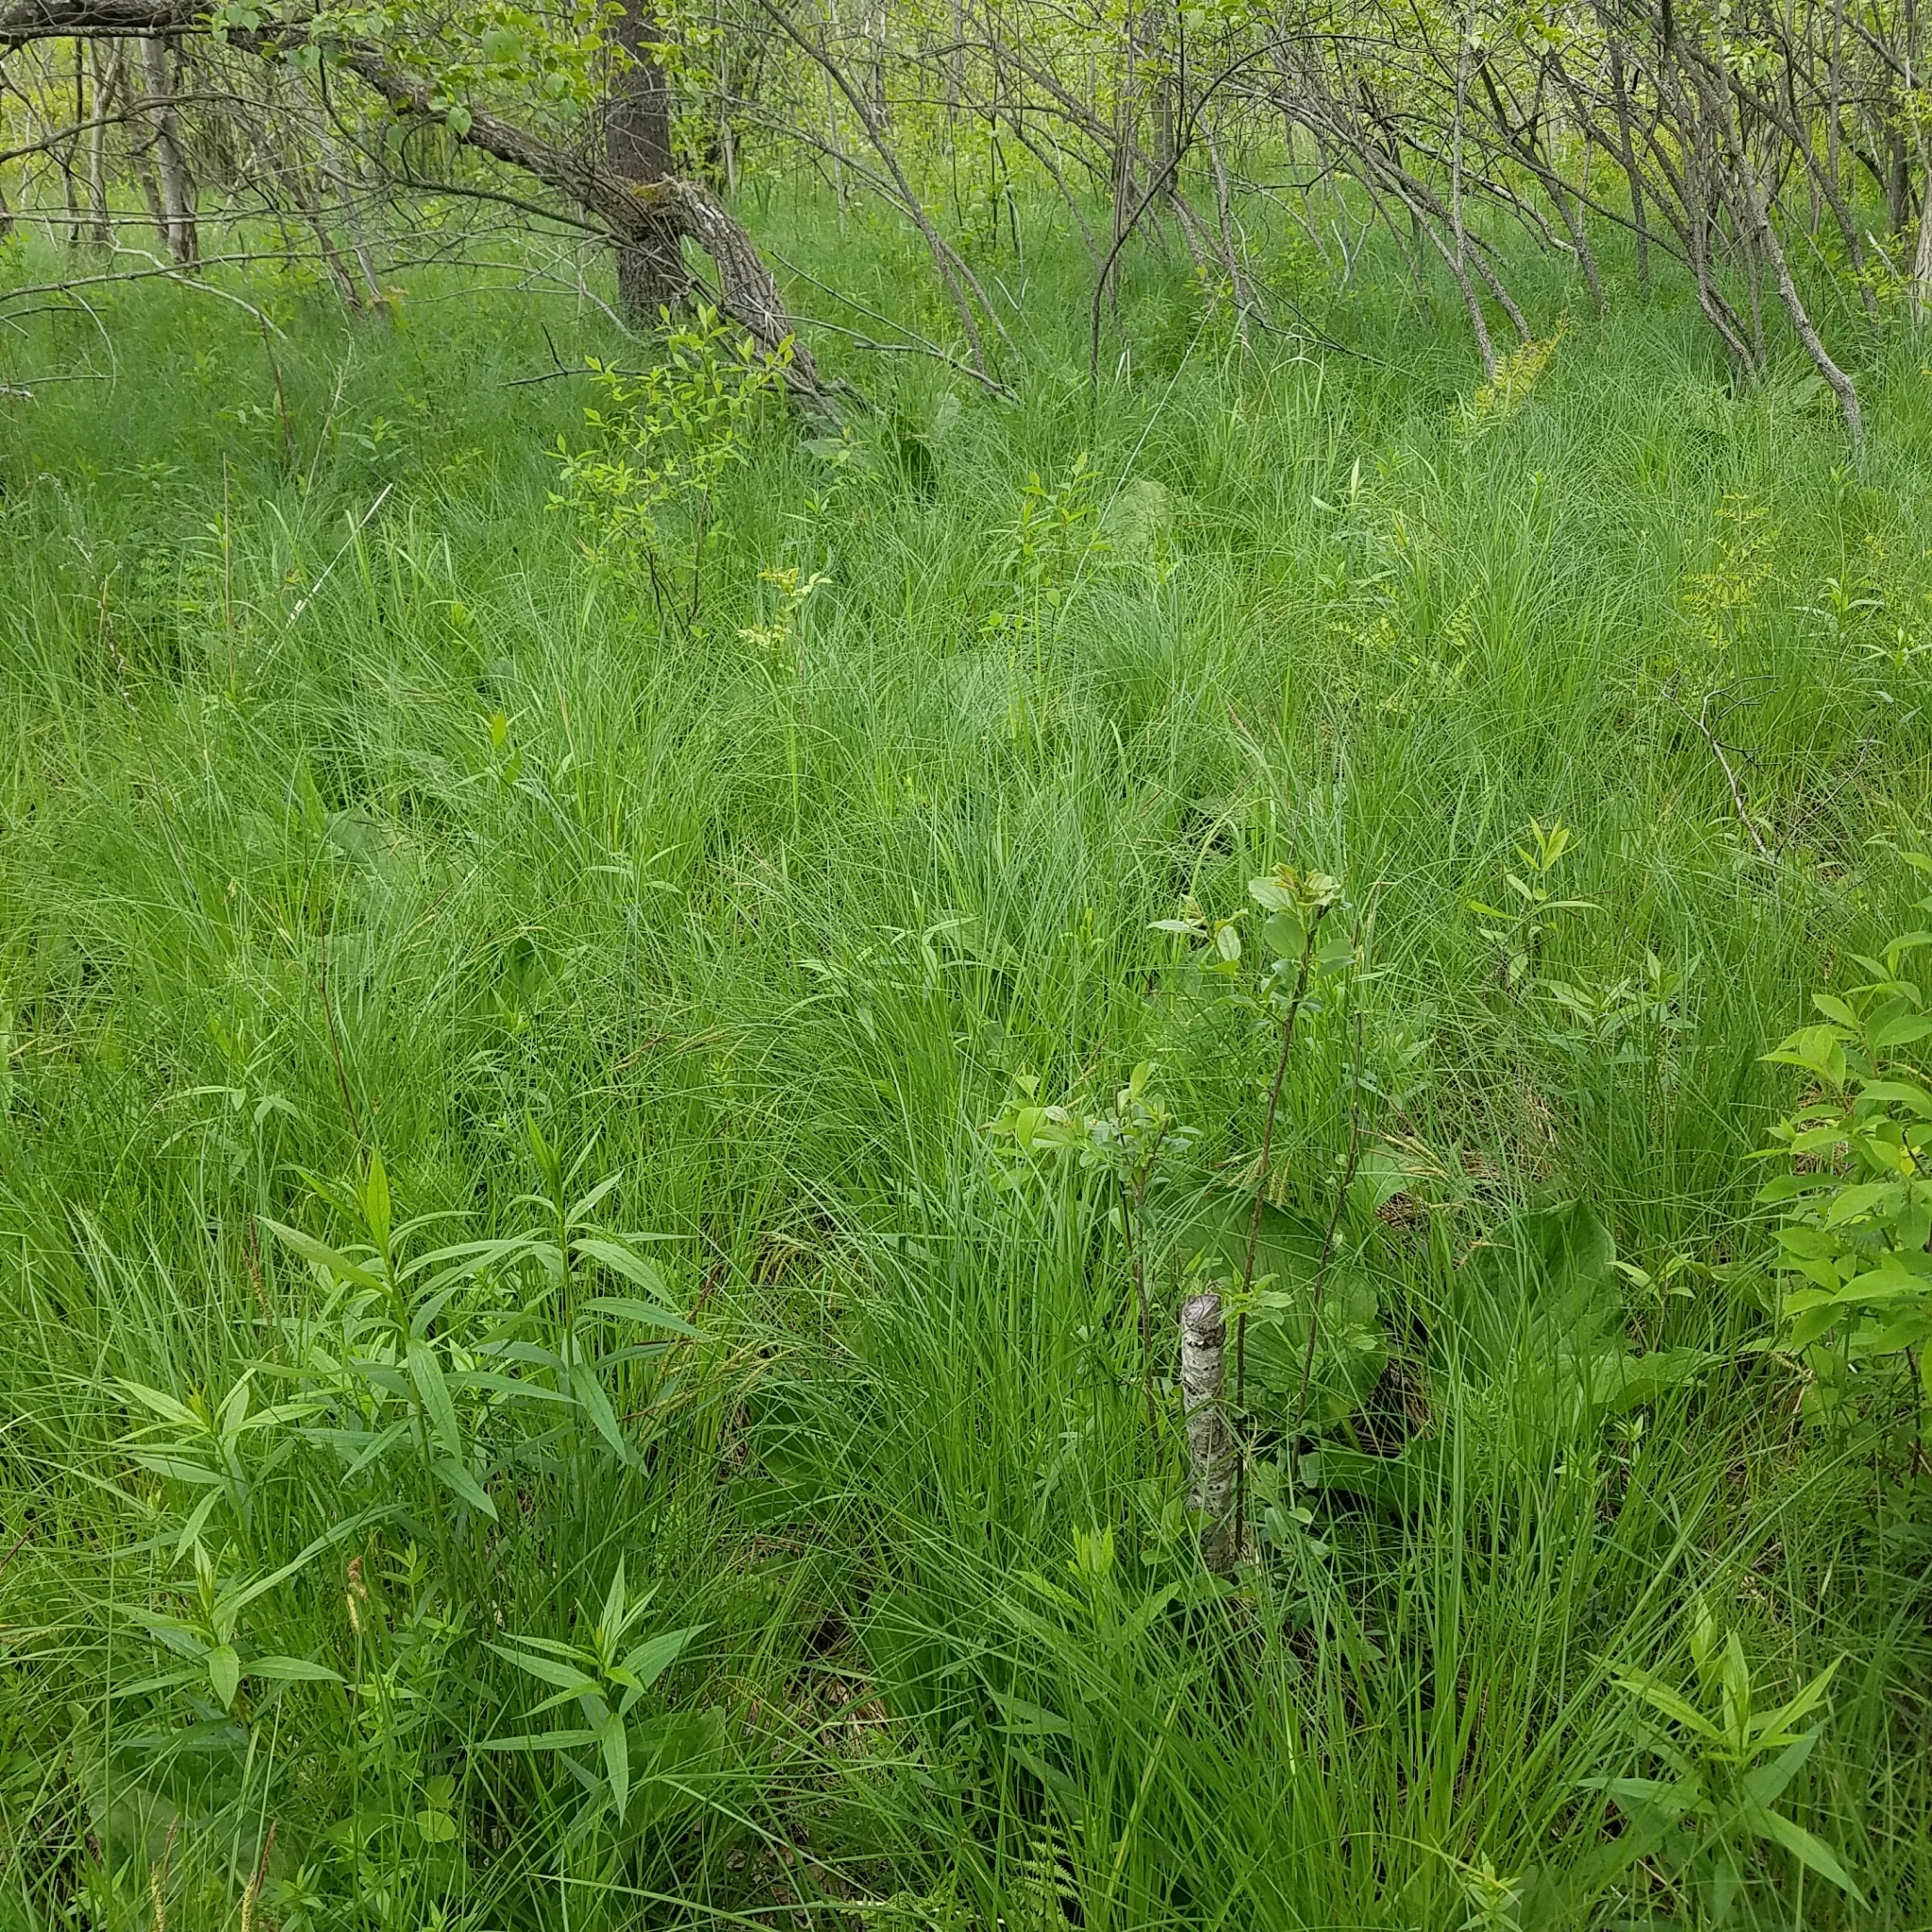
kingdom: Plantae
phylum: Tracheophyta
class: Liliopsida
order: Poales
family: Cyperaceae
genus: Carex
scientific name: Carex stricta
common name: Hummock sedge
